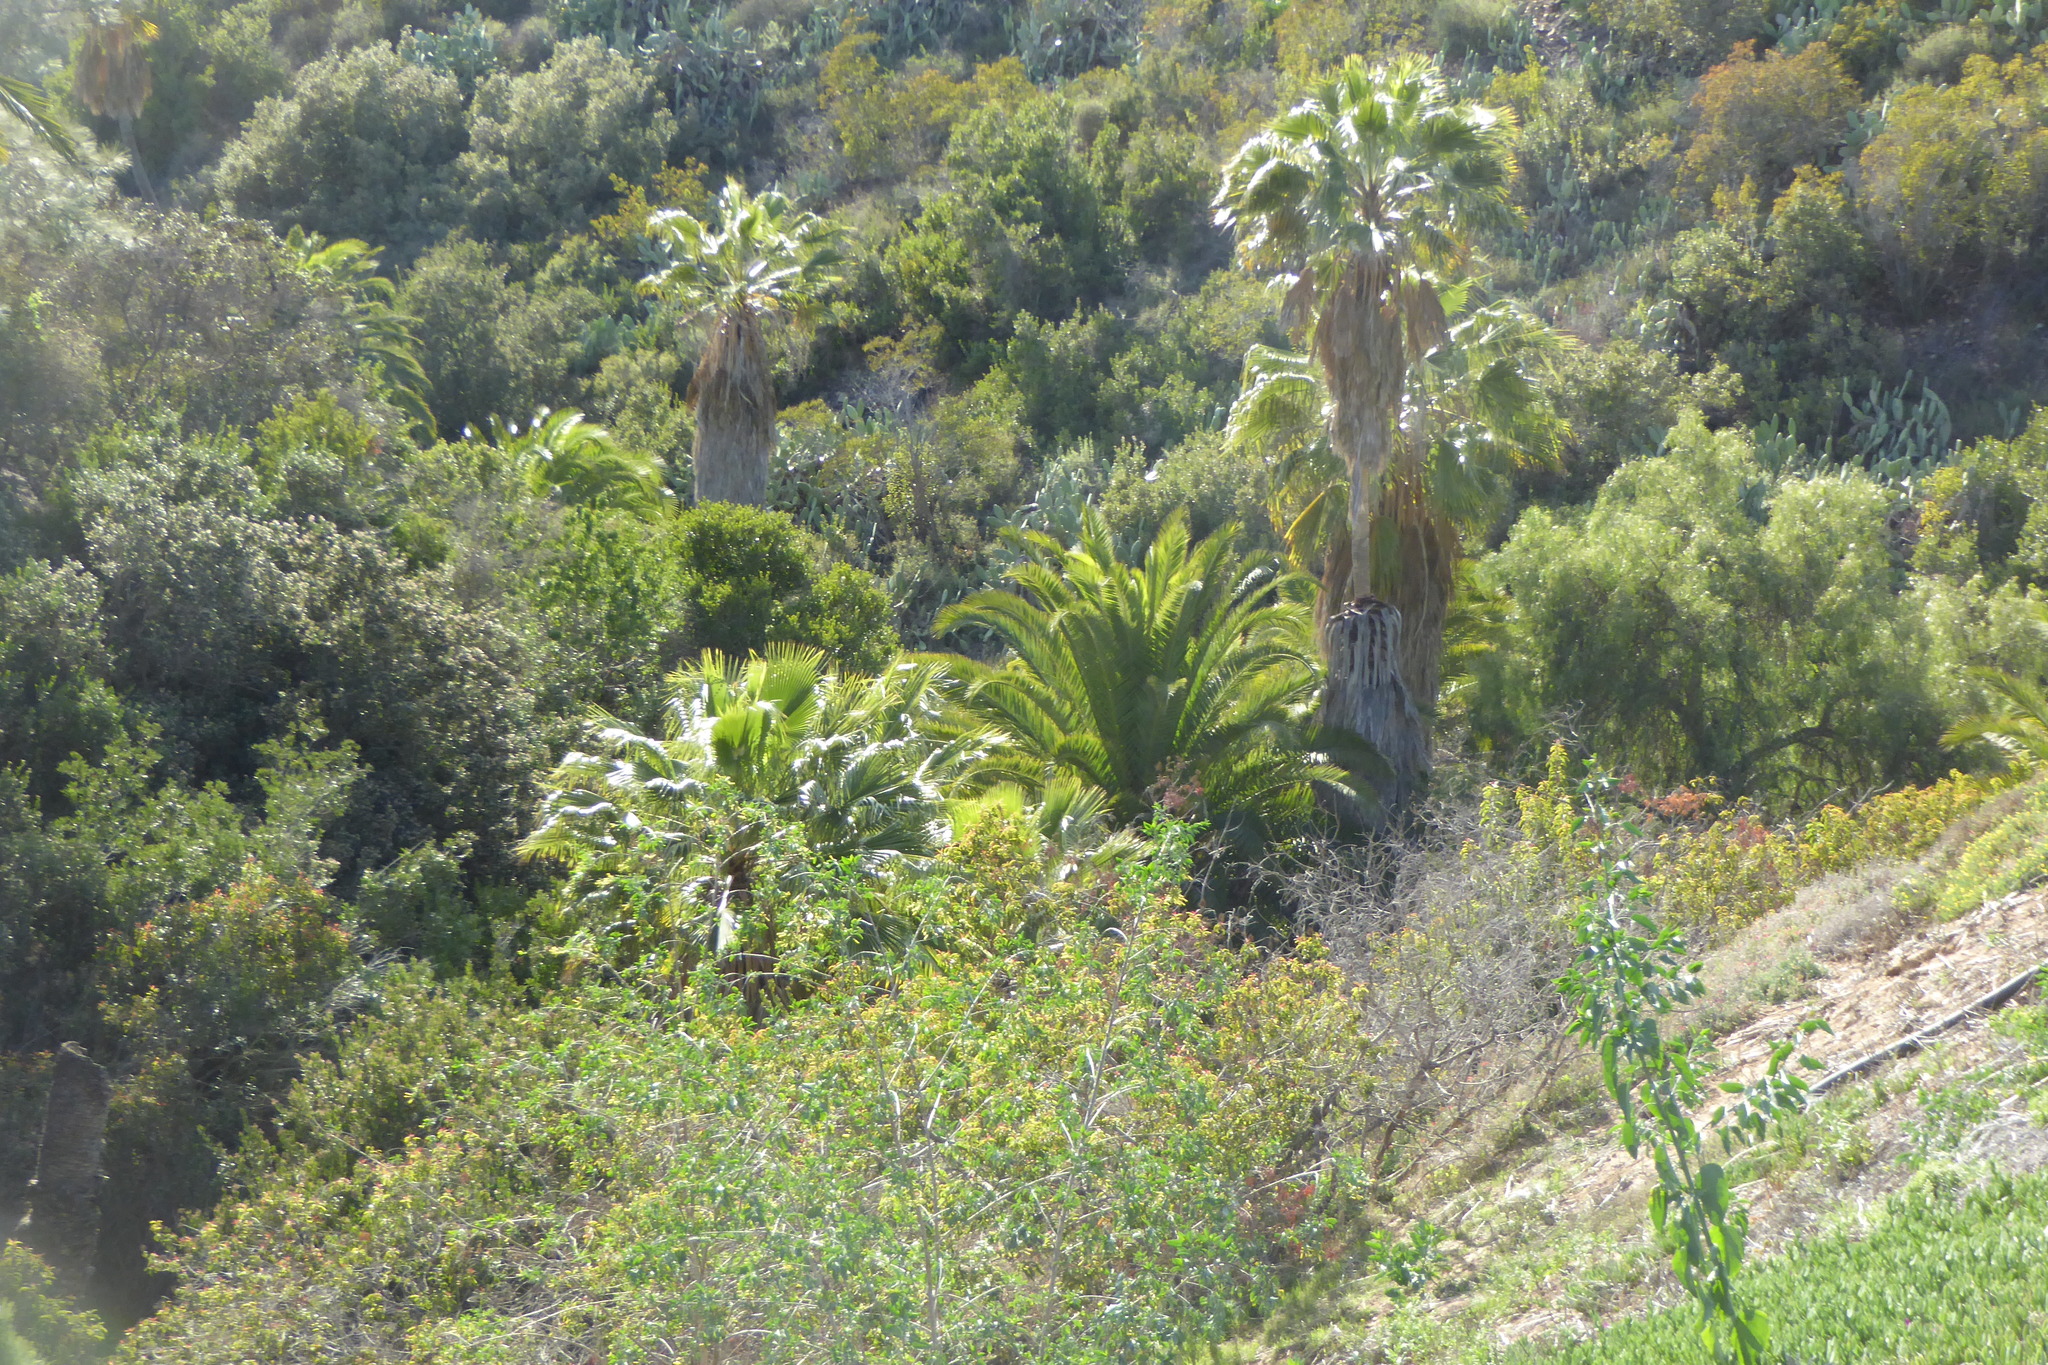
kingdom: Plantae
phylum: Tracheophyta
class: Liliopsida
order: Arecales
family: Arecaceae
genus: Washingtonia
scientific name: Washingtonia robusta
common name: Mexican fan palm
